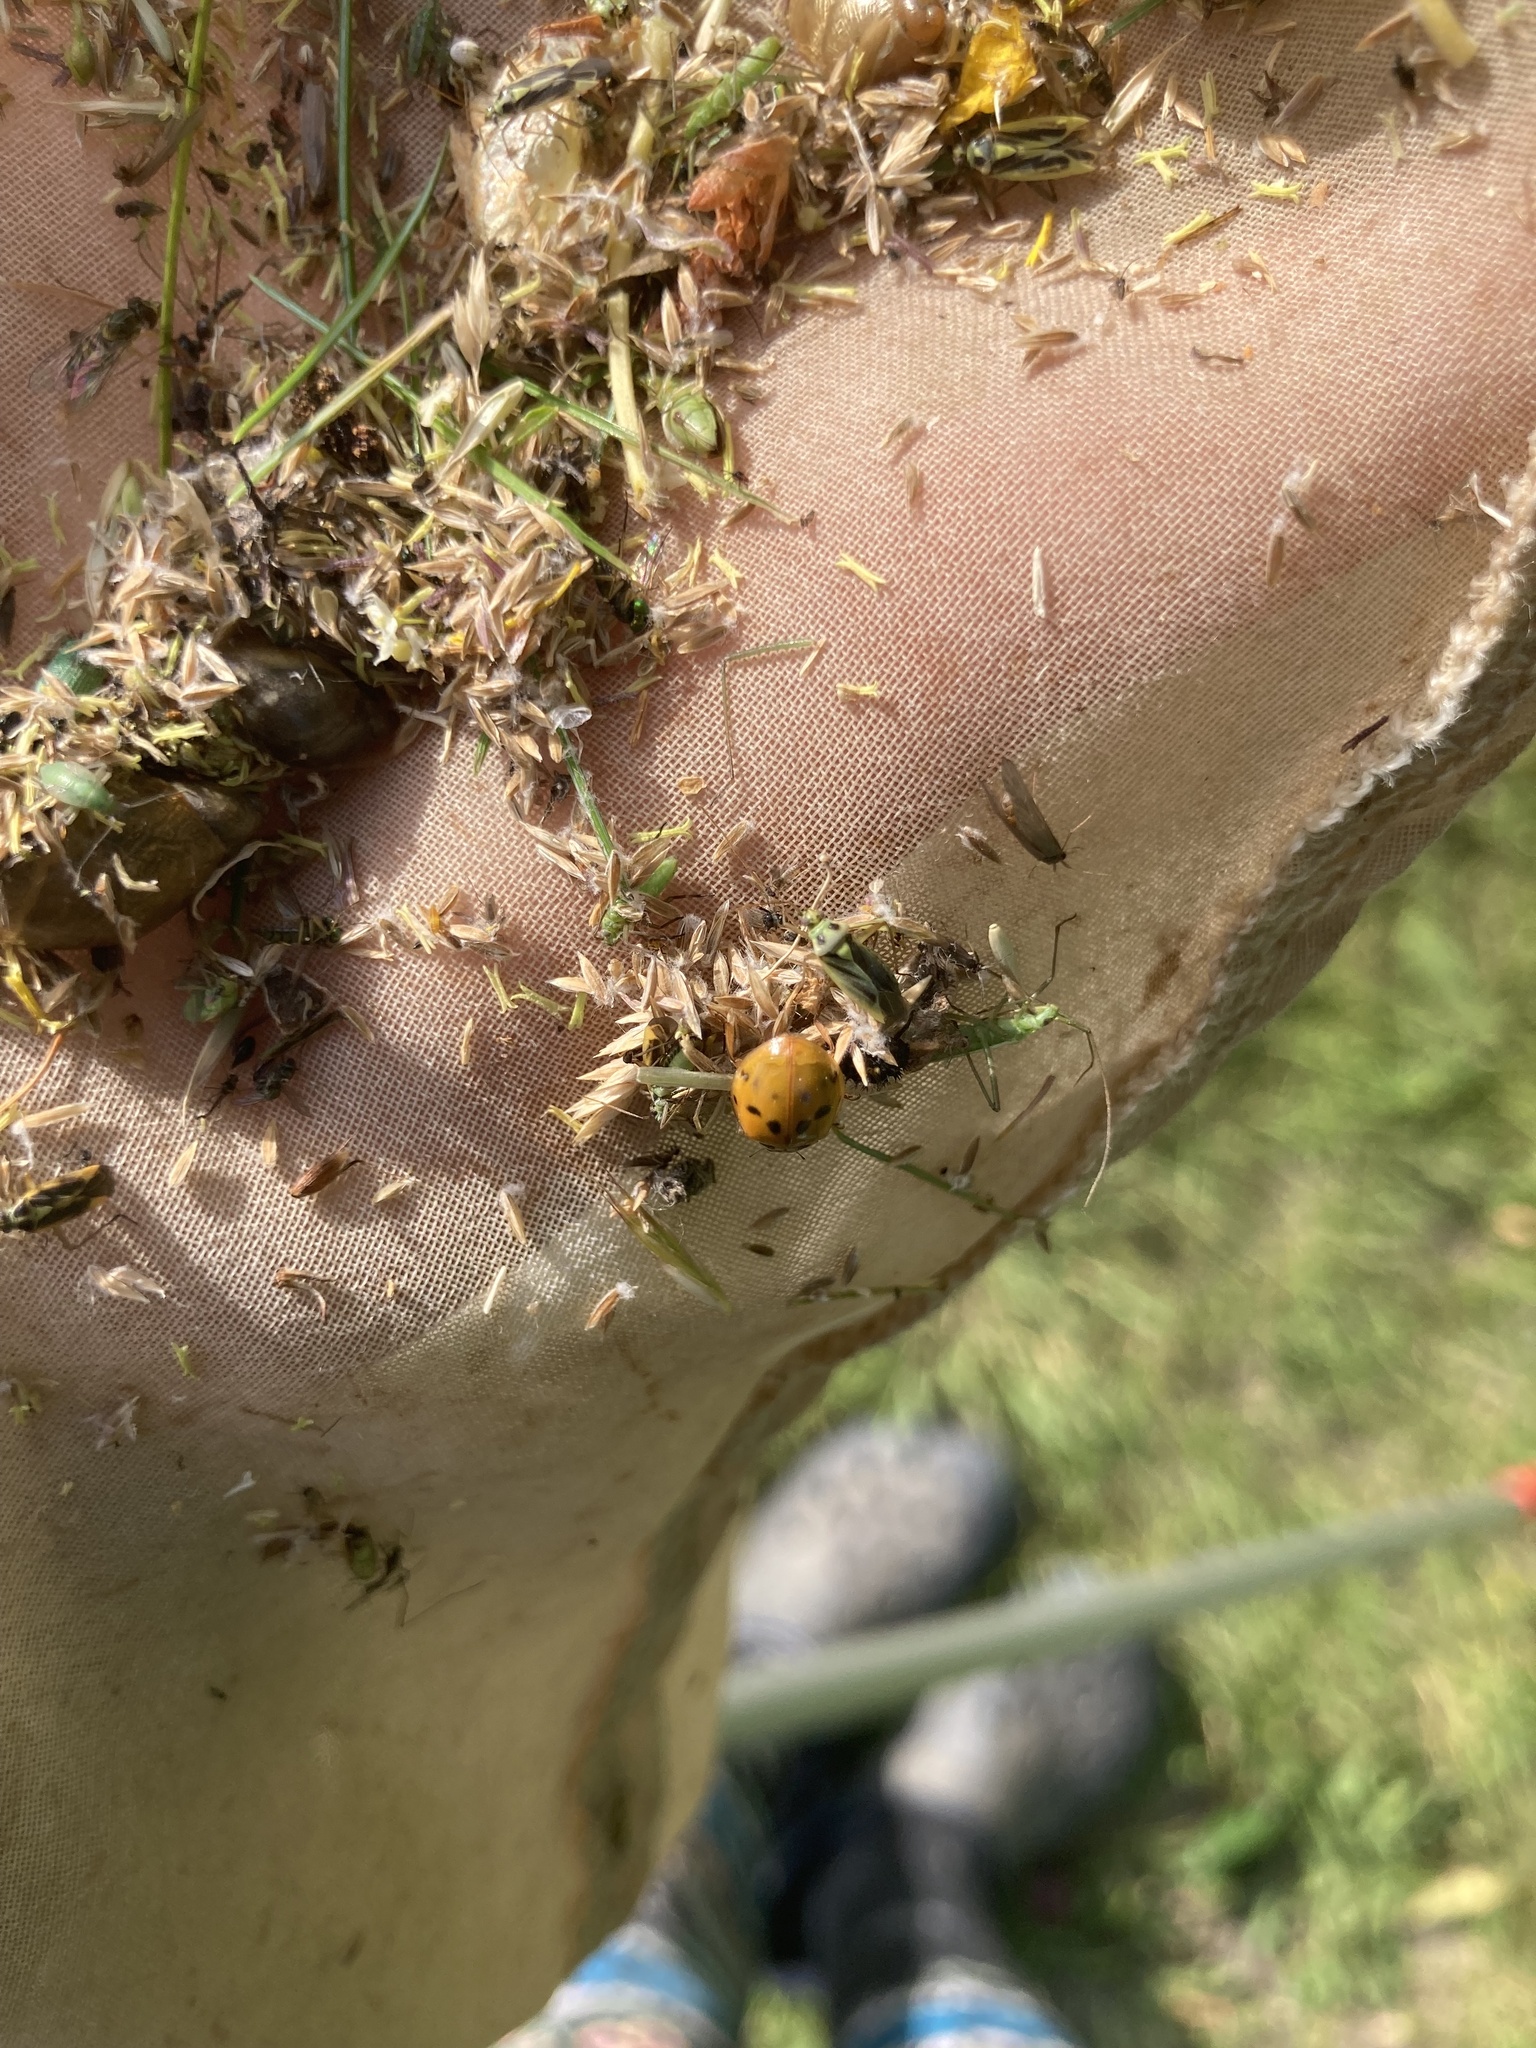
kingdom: Animalia
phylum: Arthropoda
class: Insecta
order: Coleoptera
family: Coccinellidae
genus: Harmonia
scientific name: Harmonia axyridis
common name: Harlequin ladybird
